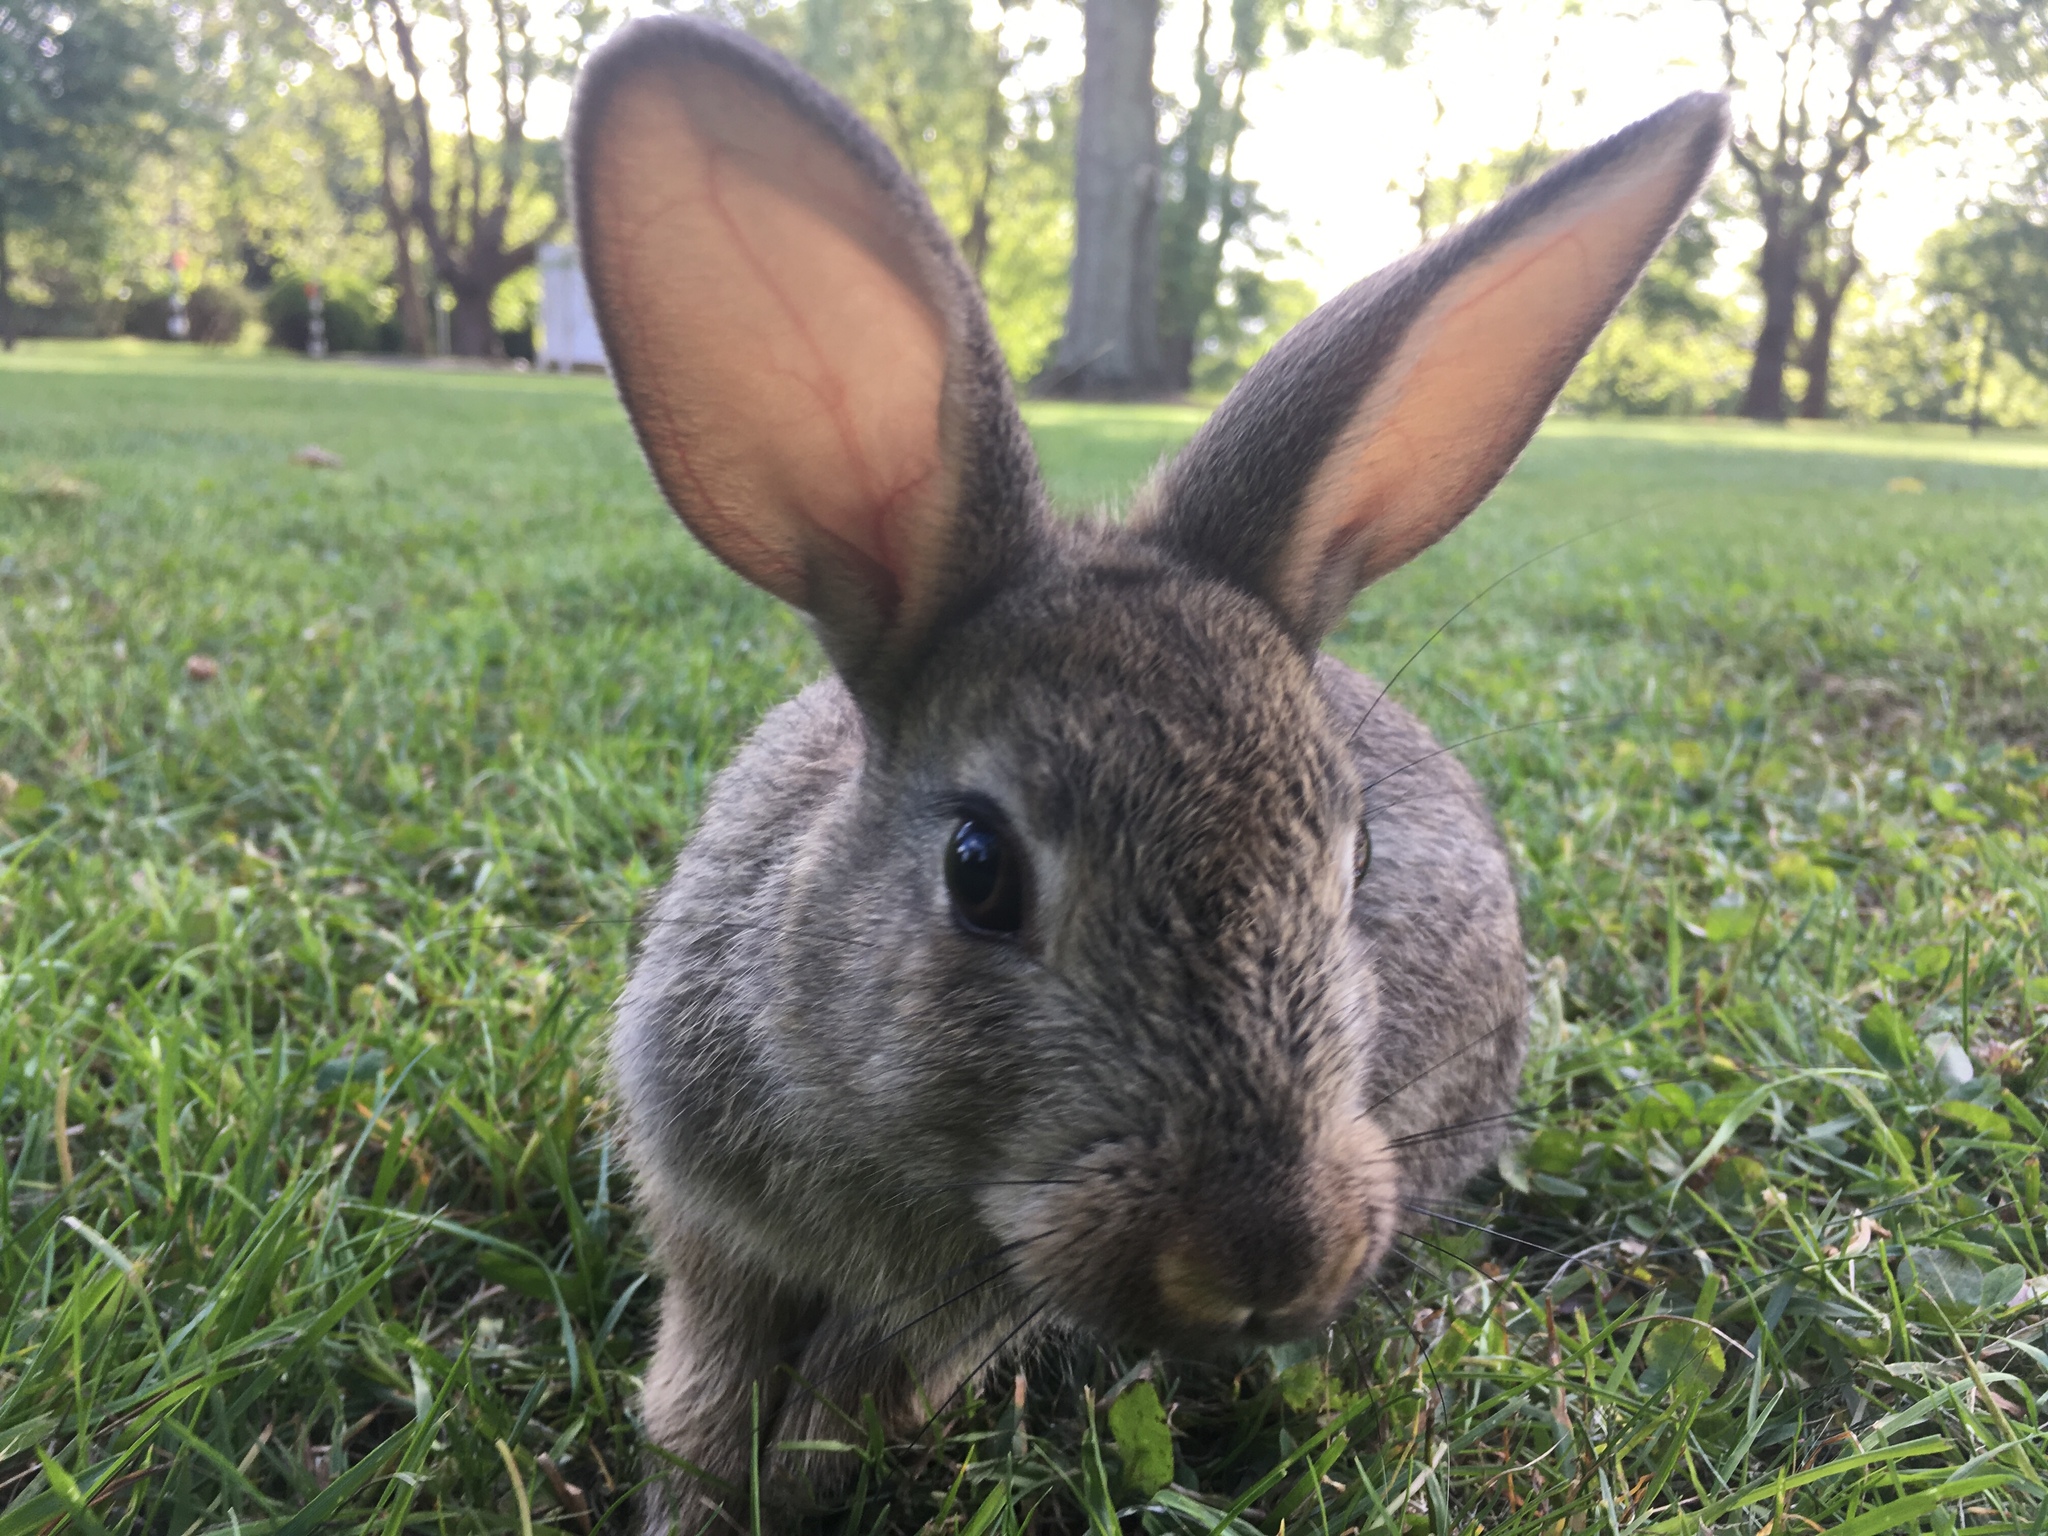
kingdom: Animalia
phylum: Chordata
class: Mammalia
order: Lagomorpha
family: Leporidae
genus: Oryctolagus
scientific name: Oryctolagus cuniculus
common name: European rabbit
